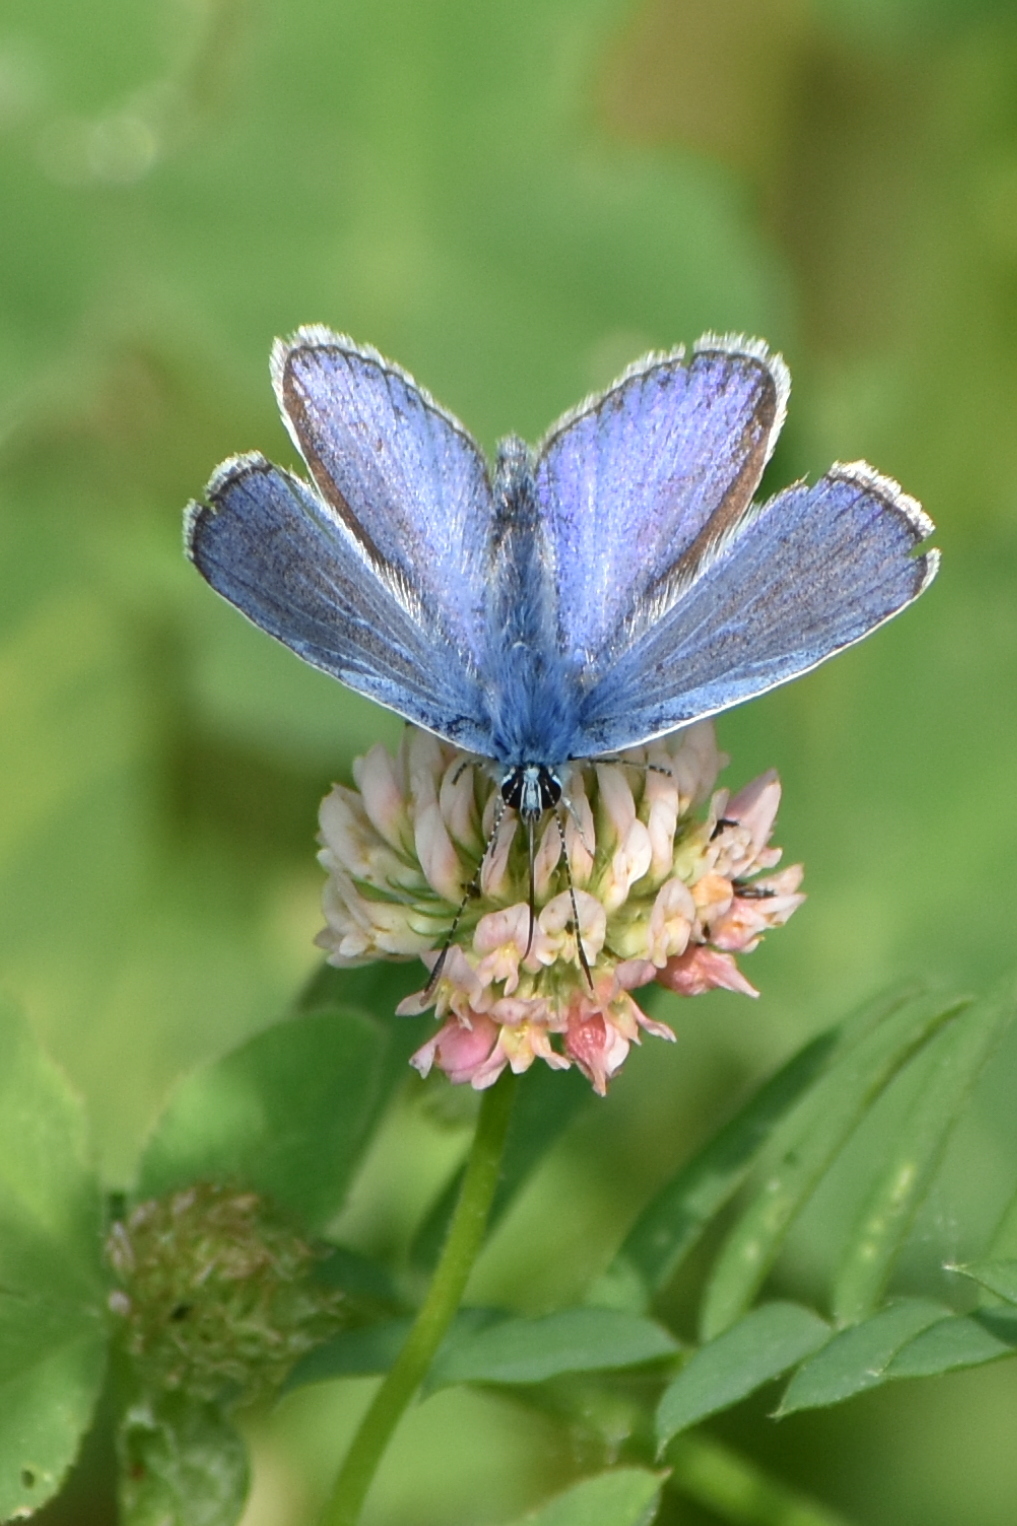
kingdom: Animalia
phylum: Arthropoda
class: Insecta
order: Lepidoptera
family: Lycaenidae
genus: Polyommatus
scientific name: Polyommatus icarus
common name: Common blue
